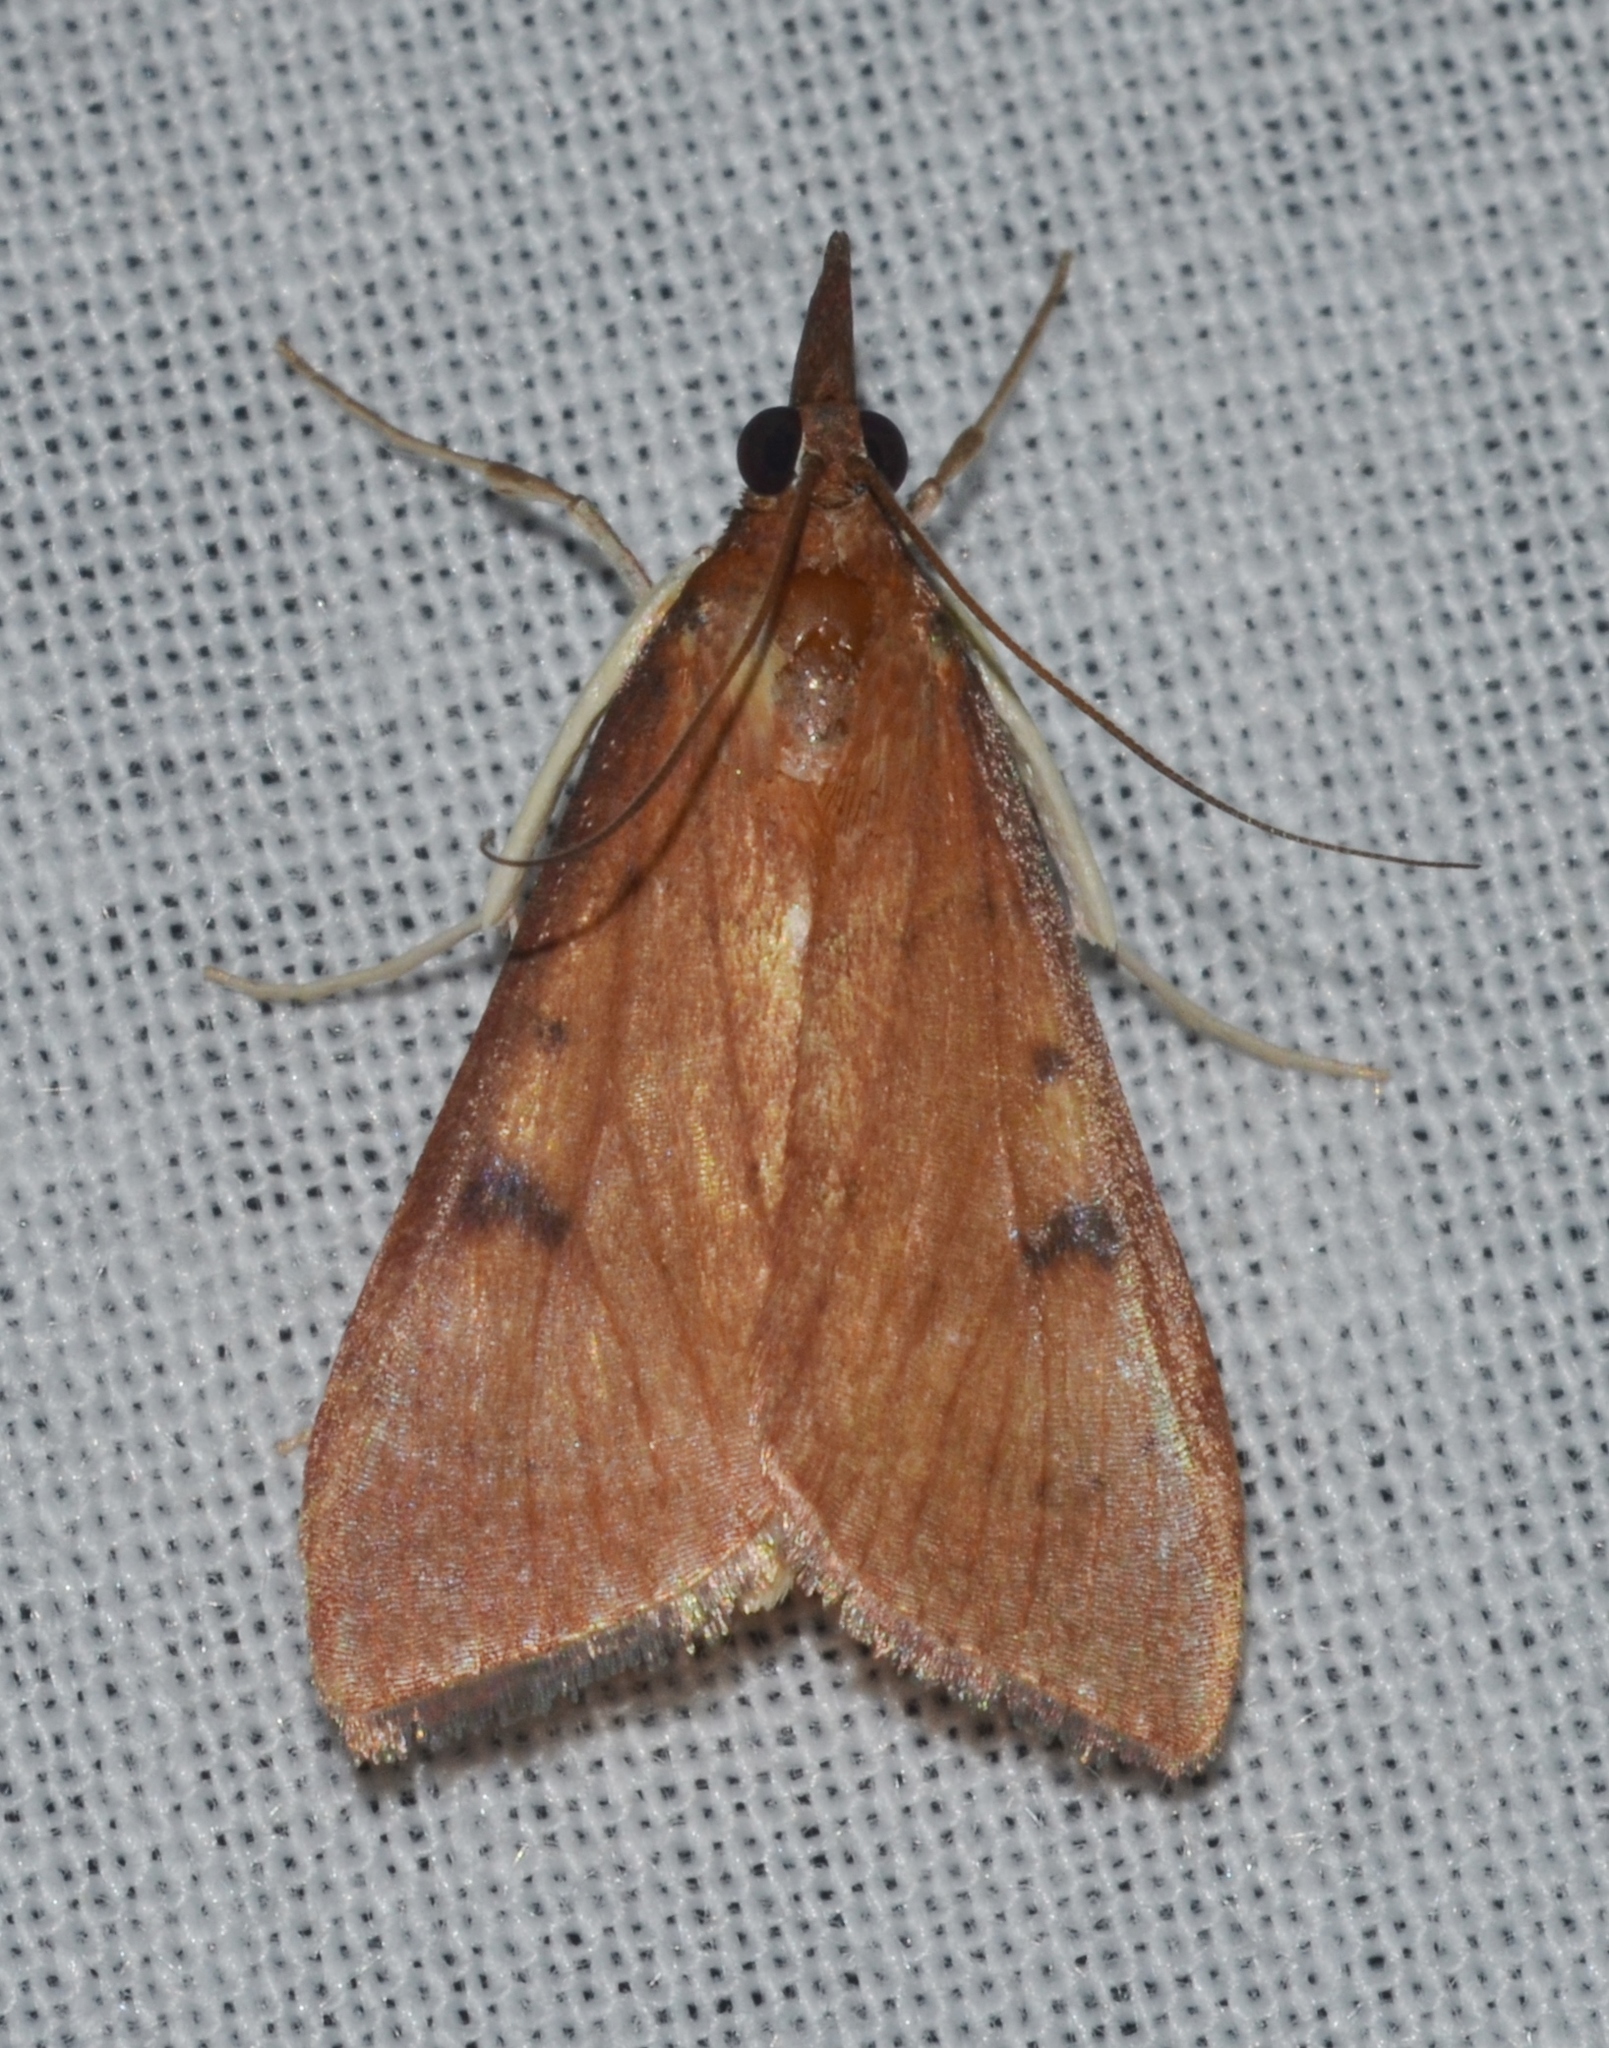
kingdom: Animalia
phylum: Arthropoda
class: Insecta
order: Lepidoptera
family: Crambidae
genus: Uresiphita
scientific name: Uresiphita reversalis
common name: Genista broom moth
